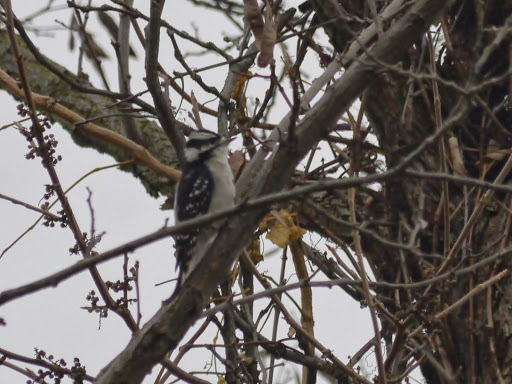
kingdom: Animalia
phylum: Chordata
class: Aves
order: Piciformes
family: Picidae
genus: Dryobates
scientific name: Dryobates pubescens
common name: Downy woodpecker
